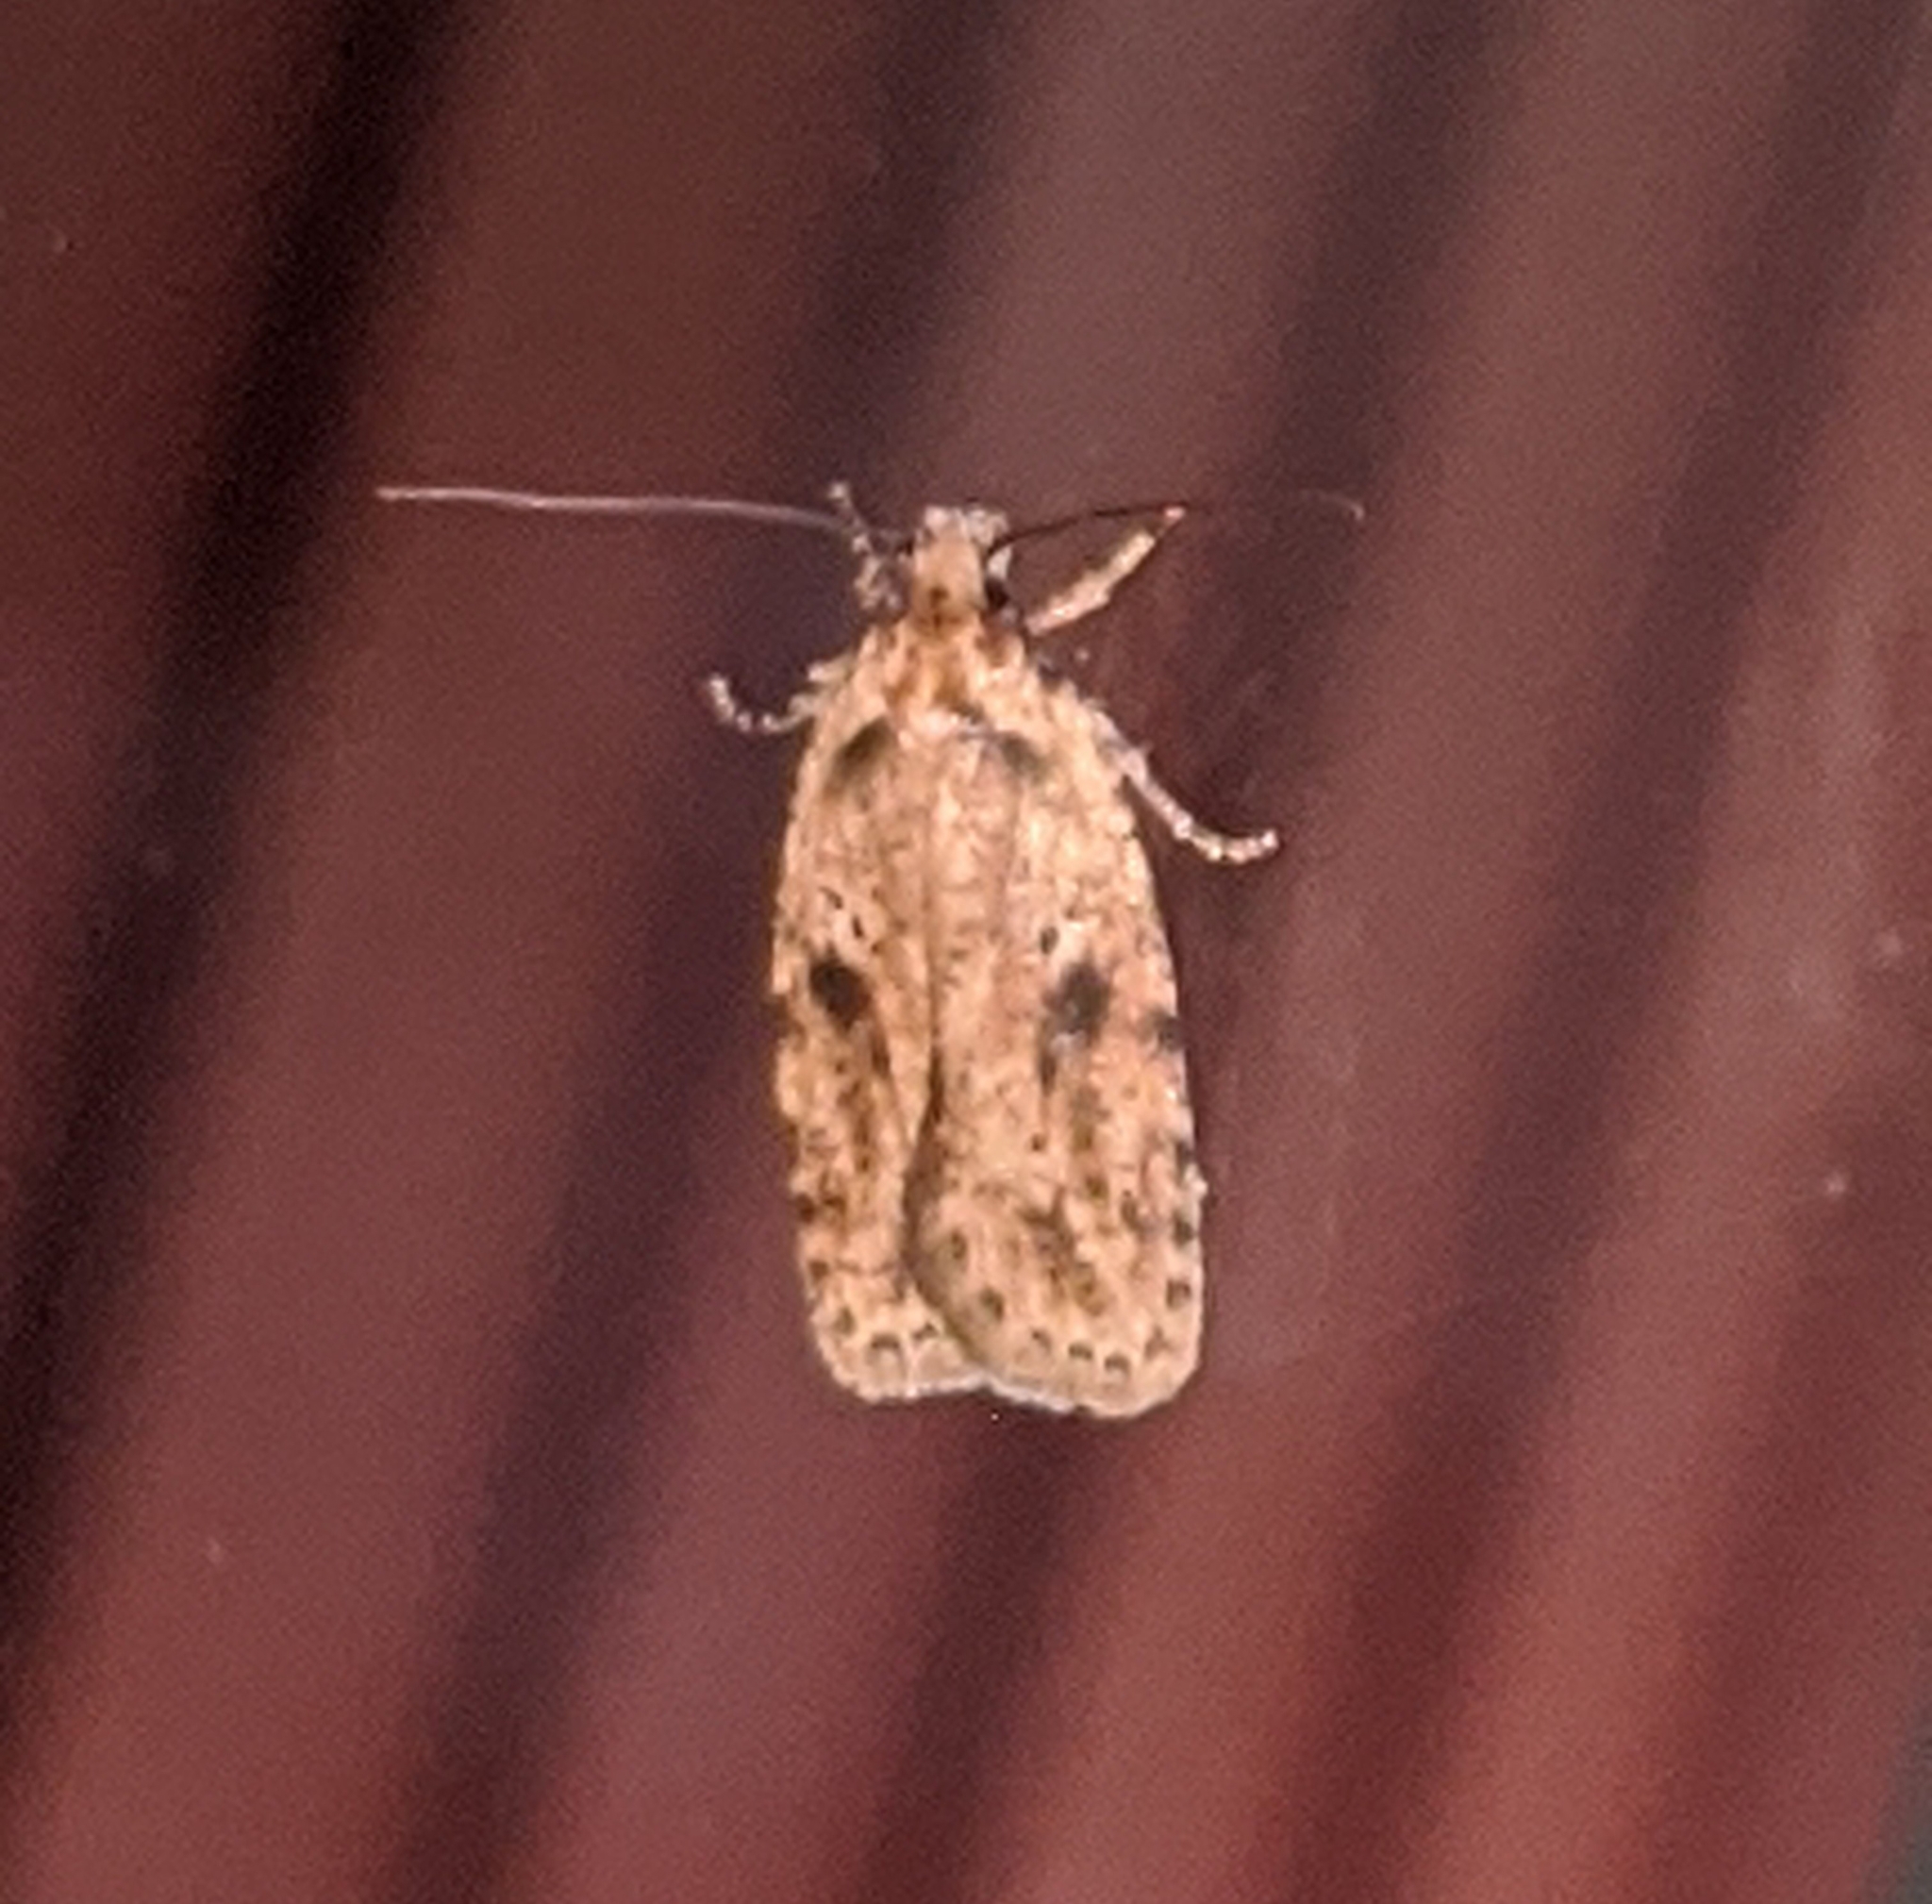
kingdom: Animalia
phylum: Arthropoda
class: Insecta
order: Lepidoptera
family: Depressariidae
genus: Agonopterix
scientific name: Agonopterix canadensis
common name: Canadian agonopterix moth
